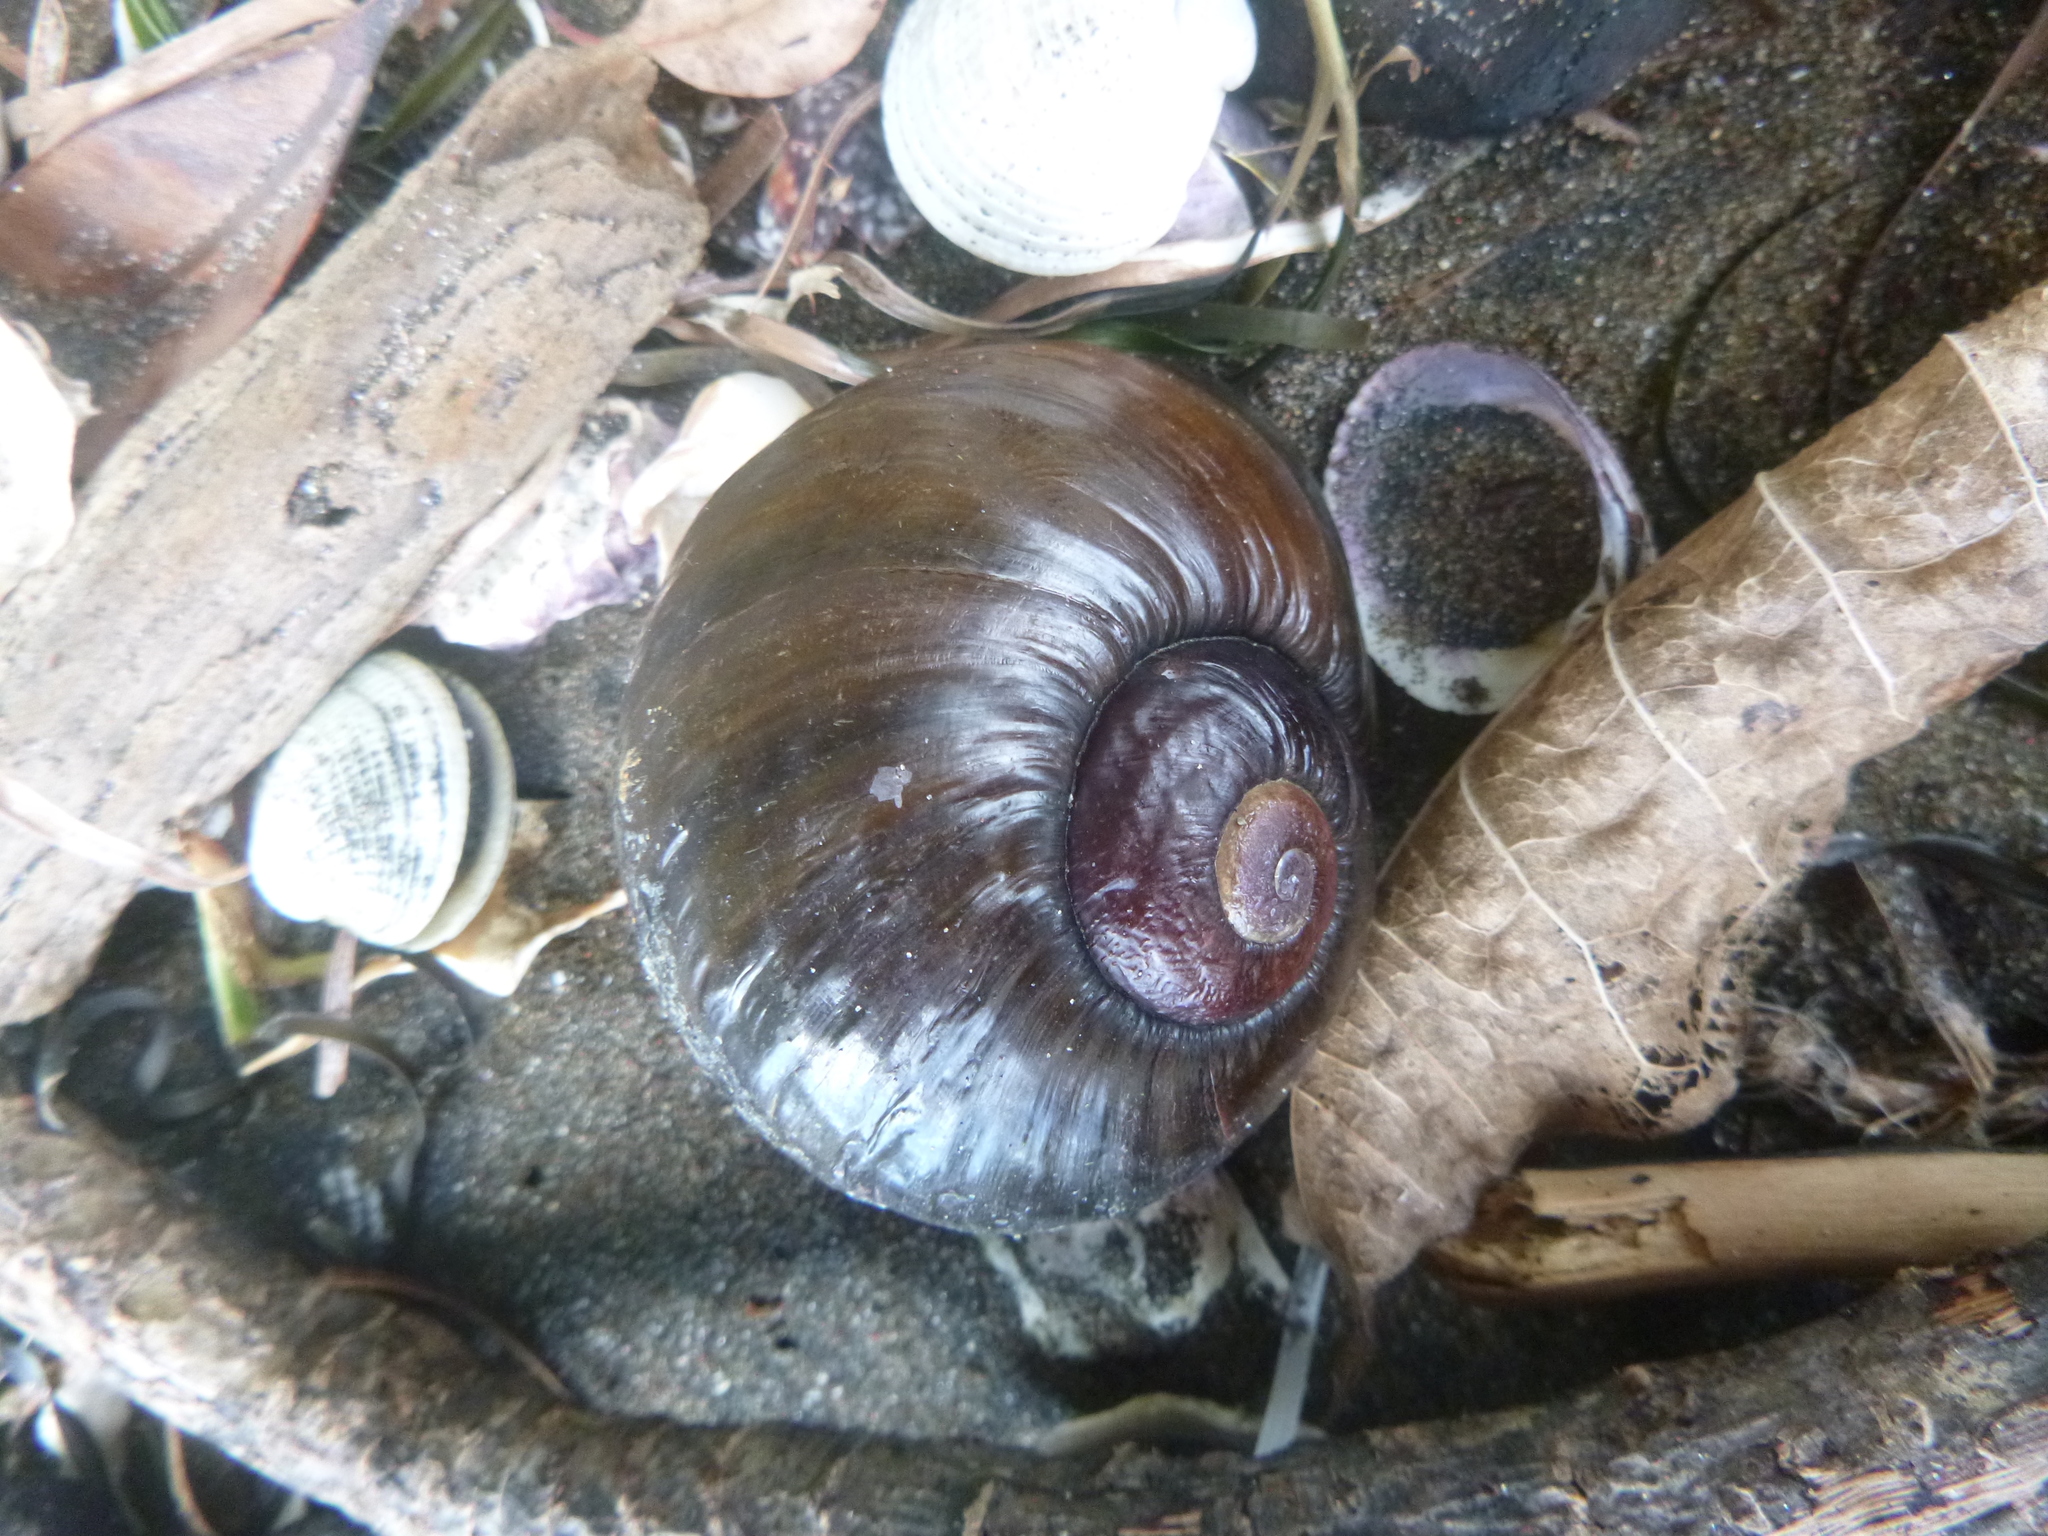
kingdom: Animalia
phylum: Mollusca
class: Gastropoda
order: Stylommatophora
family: Rhytididae
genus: Paryphanta
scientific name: Paryphanta busbyi
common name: Kauri snail
